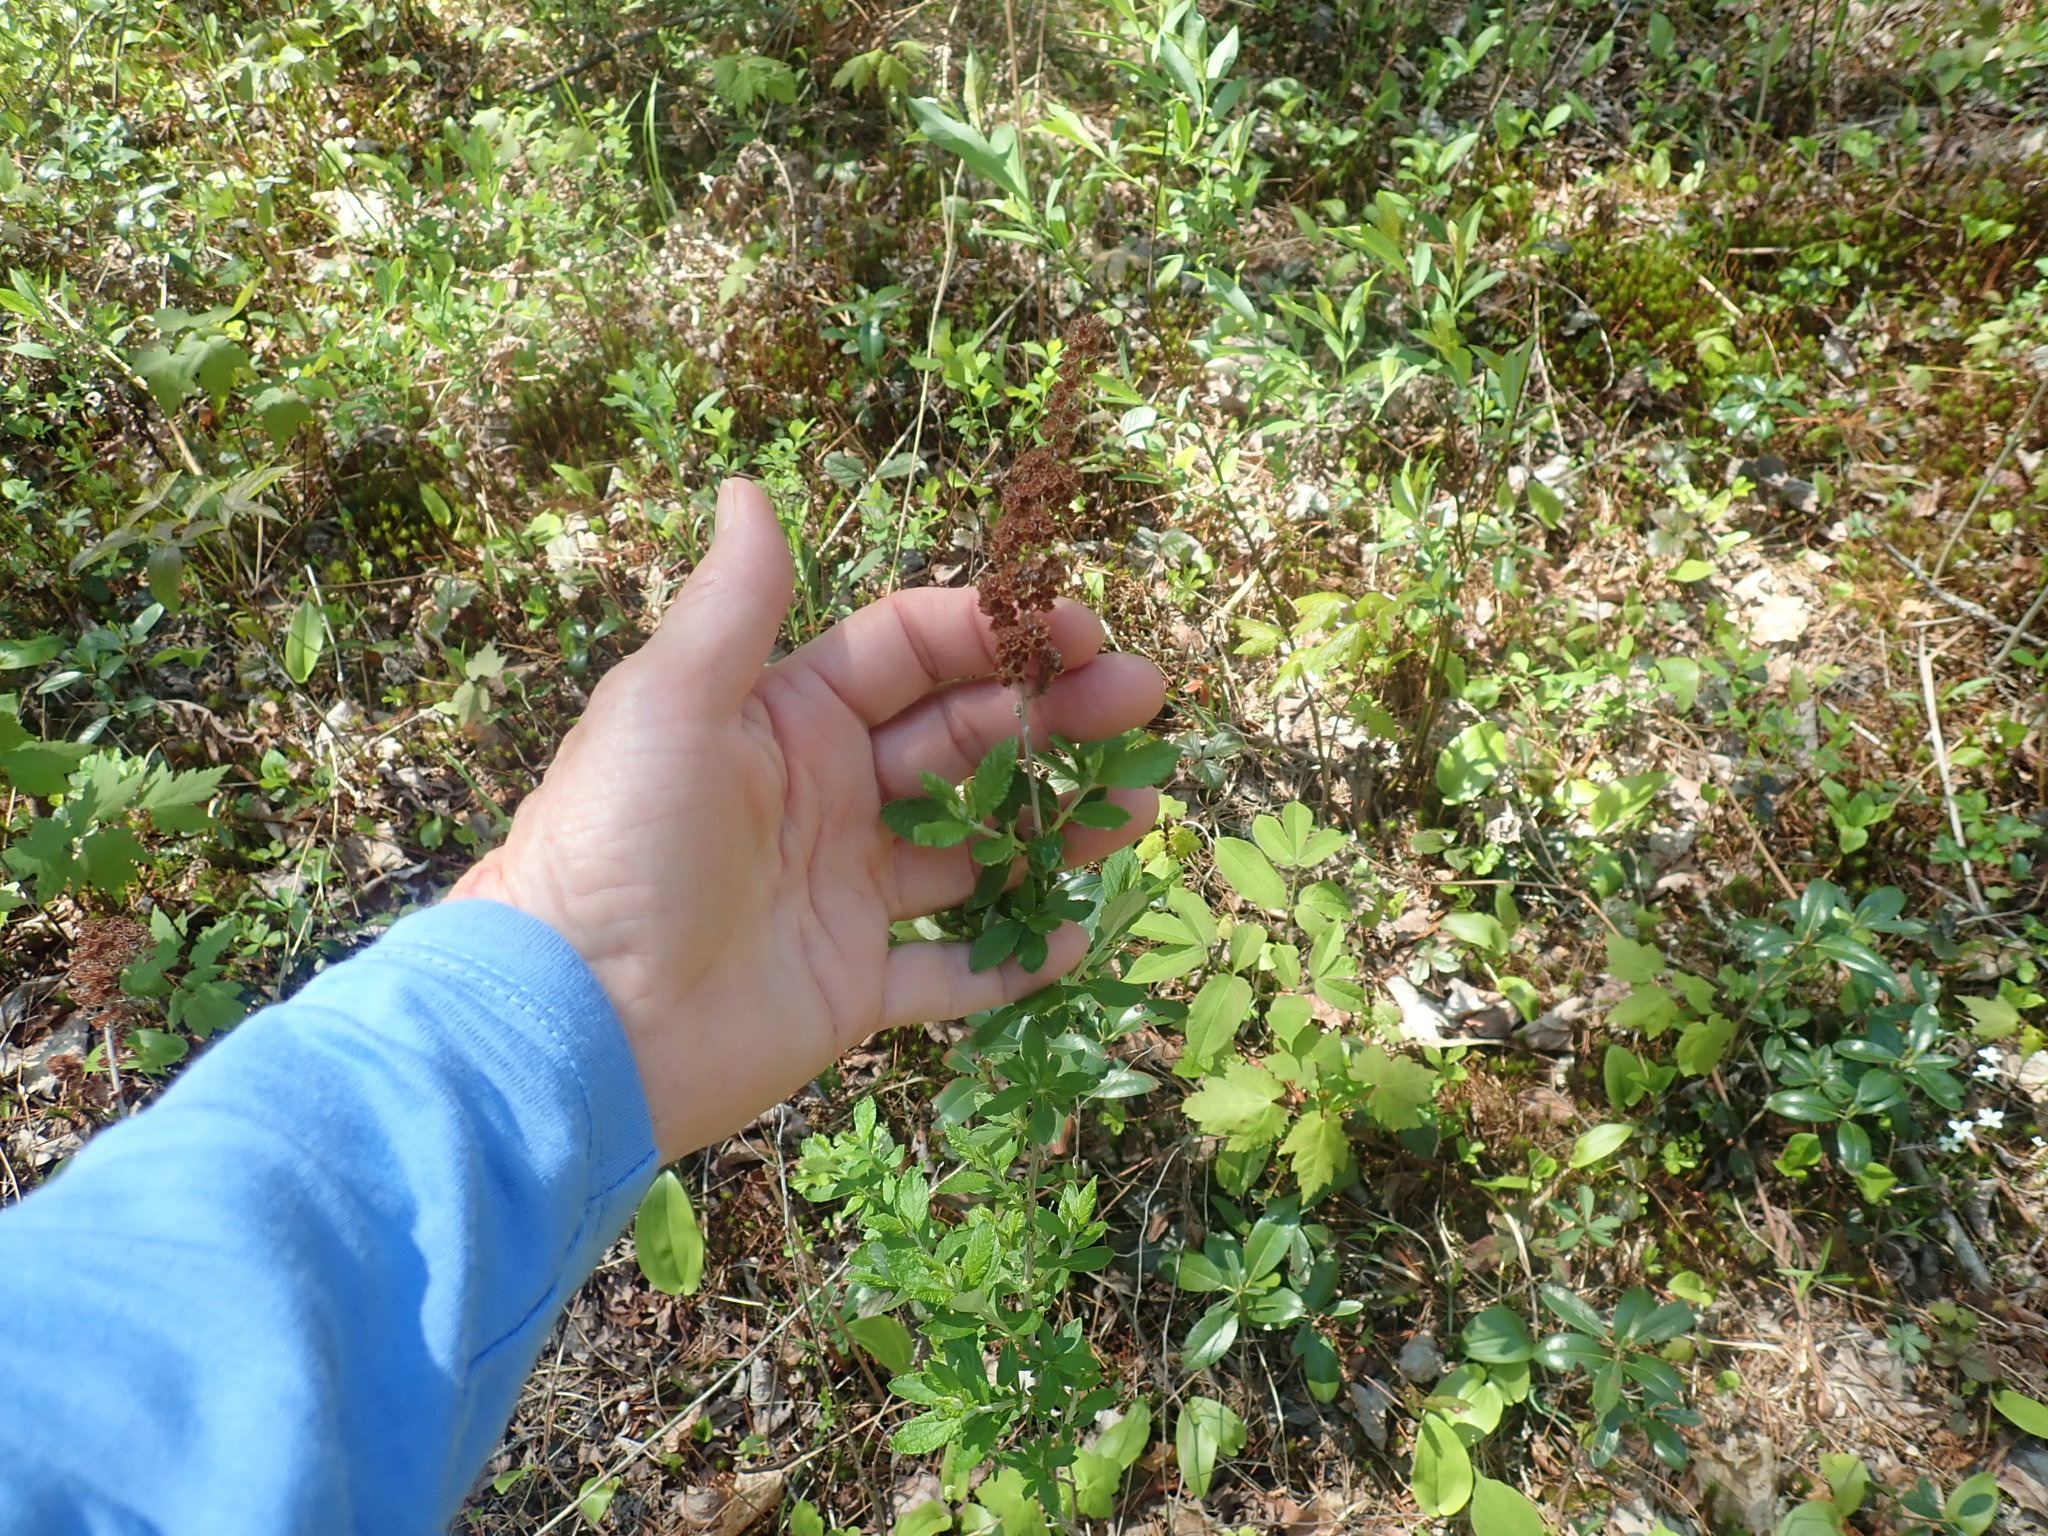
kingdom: Plantae
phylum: Tracheophyta
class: Magnoliopsida
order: Rosales
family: Rosaceae
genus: Spiraea
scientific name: Spiraea tomentosa
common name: Hardhack
